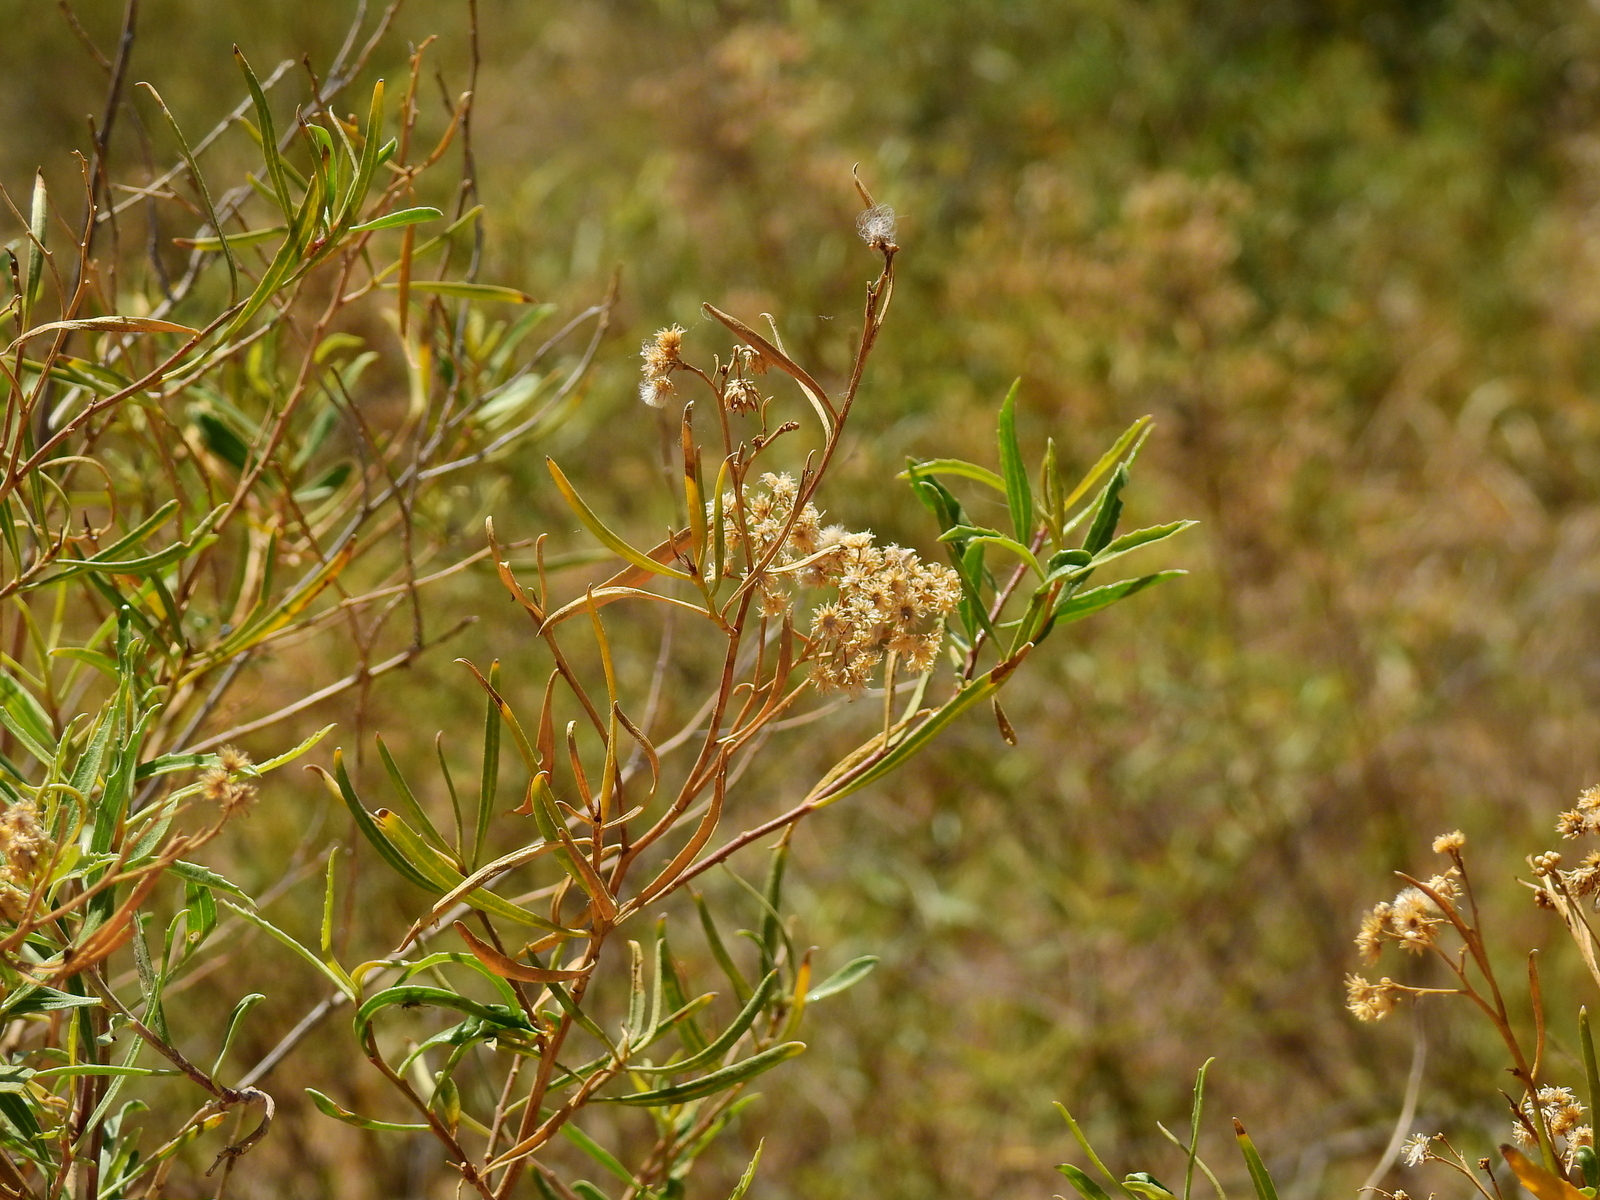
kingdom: Plantae
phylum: Tracheophyta
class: Magnoliopsida
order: Asterales
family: Asteraceae
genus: Baccharis
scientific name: Baccharis salicifolia
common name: Sticky baccharis
